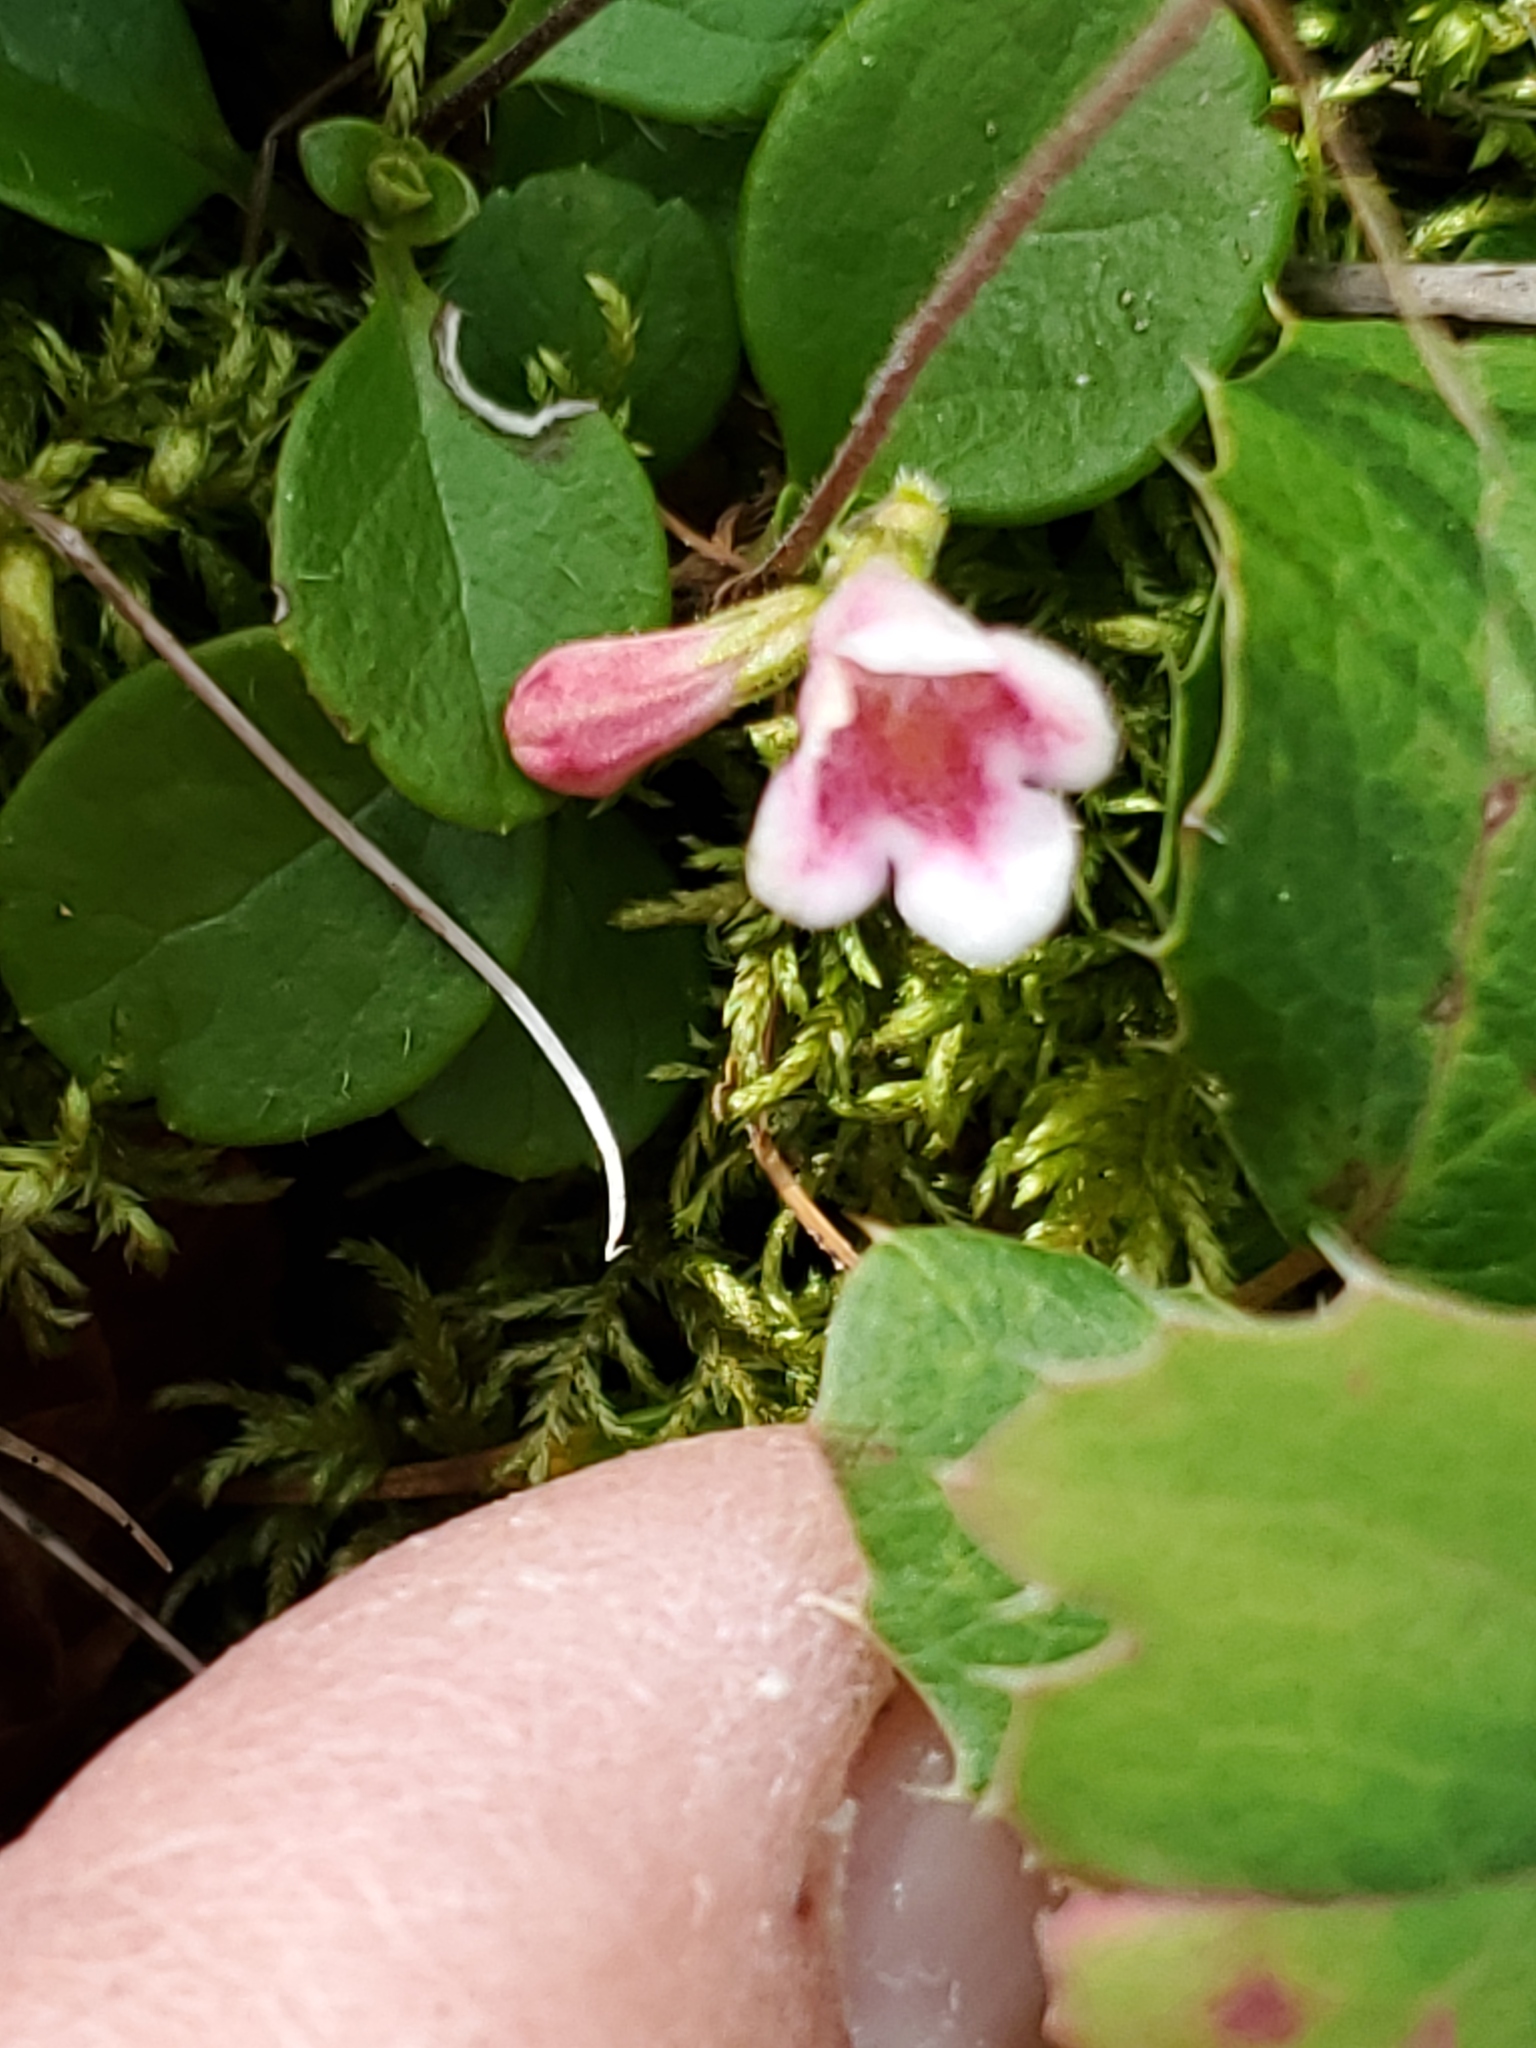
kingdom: Plantae
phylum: Tracheophyta
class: Magnoliopsida
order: Dipsacales
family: Caprifoliaceae
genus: Linnaea
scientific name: Linnaea borealis
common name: Twinflower
